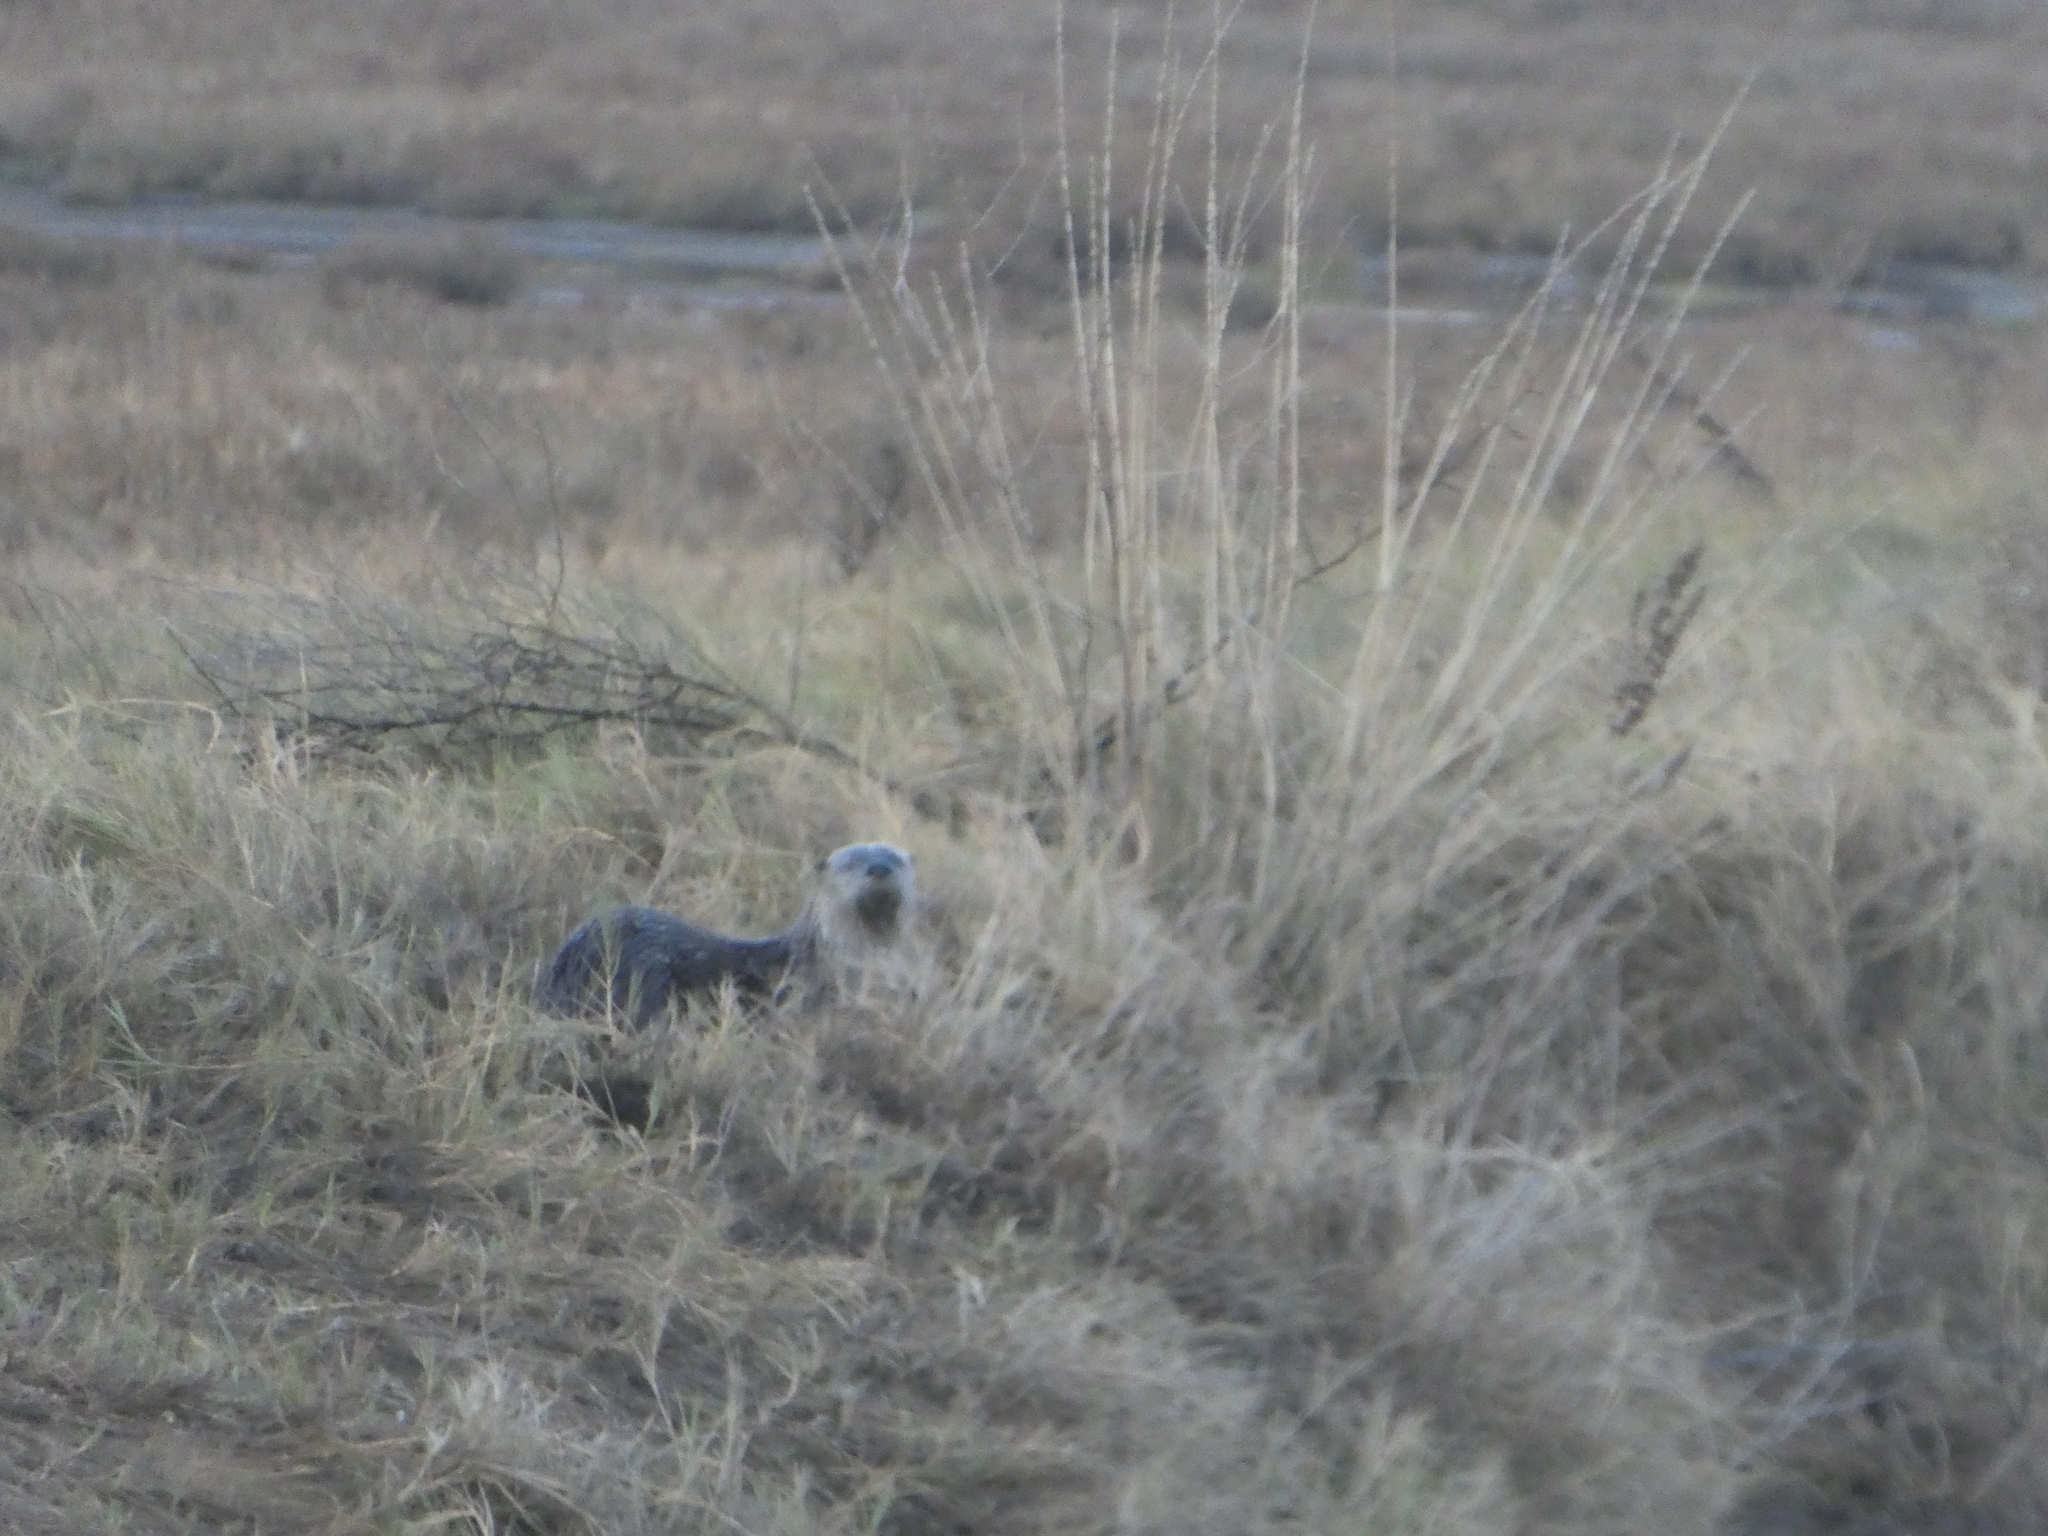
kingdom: Animalia
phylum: Chordata
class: Mammalia
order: Carnivora
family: Mustelidae
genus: Lontra
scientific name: Lontra canadensis
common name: North american river otter
